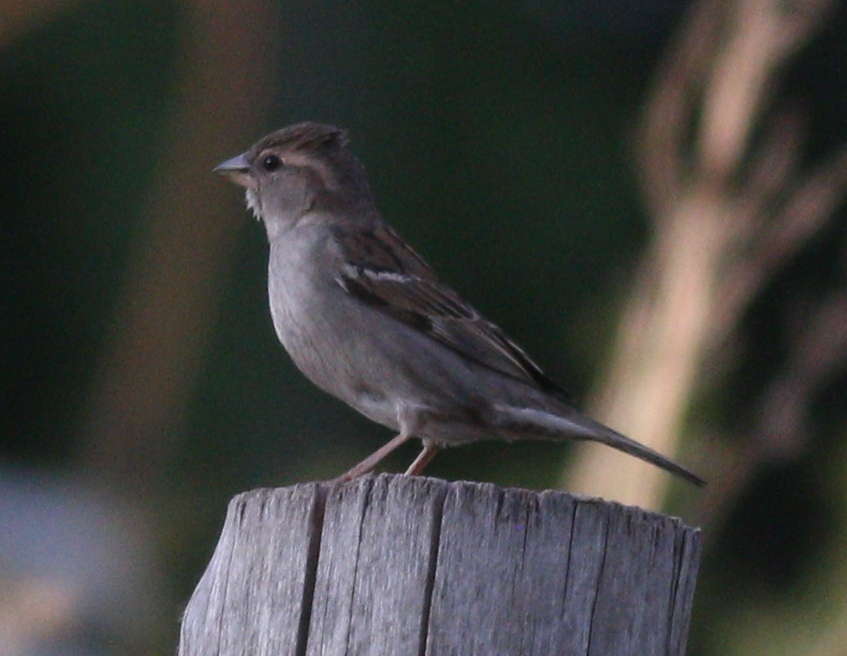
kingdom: Animalia
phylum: Chordata
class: Aves
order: Passeriformes
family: Passeridae
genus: Passer
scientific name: Passer domesticus
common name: House sparrow
